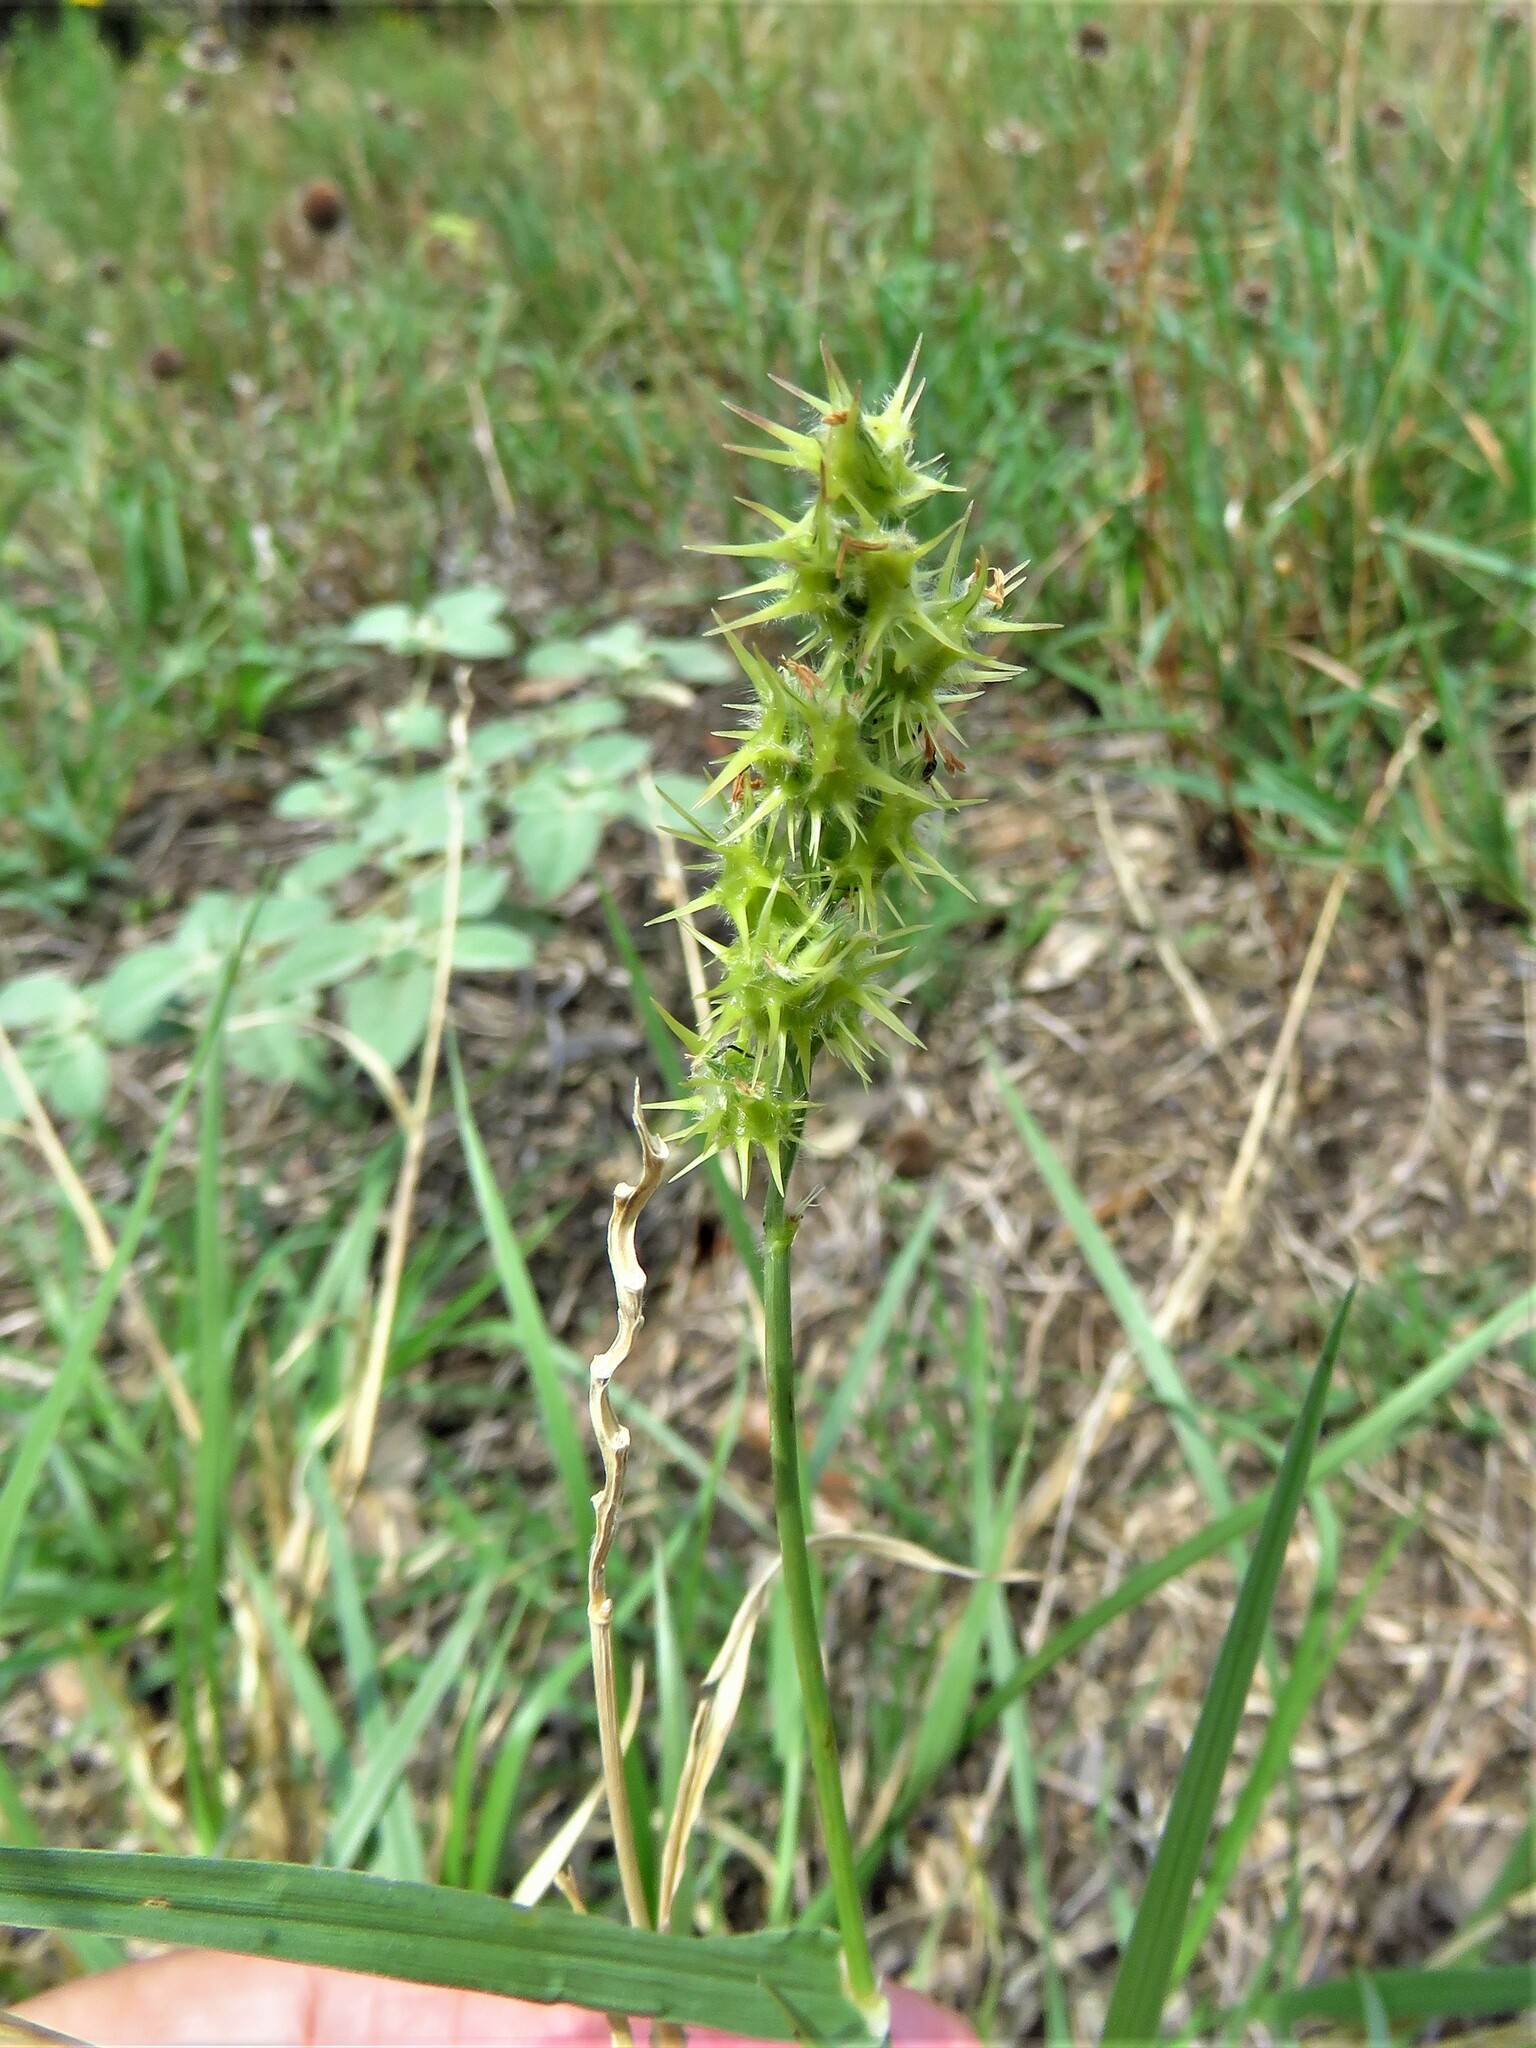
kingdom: Plantae
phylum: Tracheophyta
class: Liliopsida
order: Poales
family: Poaceae
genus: Cenchrus
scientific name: Cenchrus spinifex
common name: Coast sandbur
